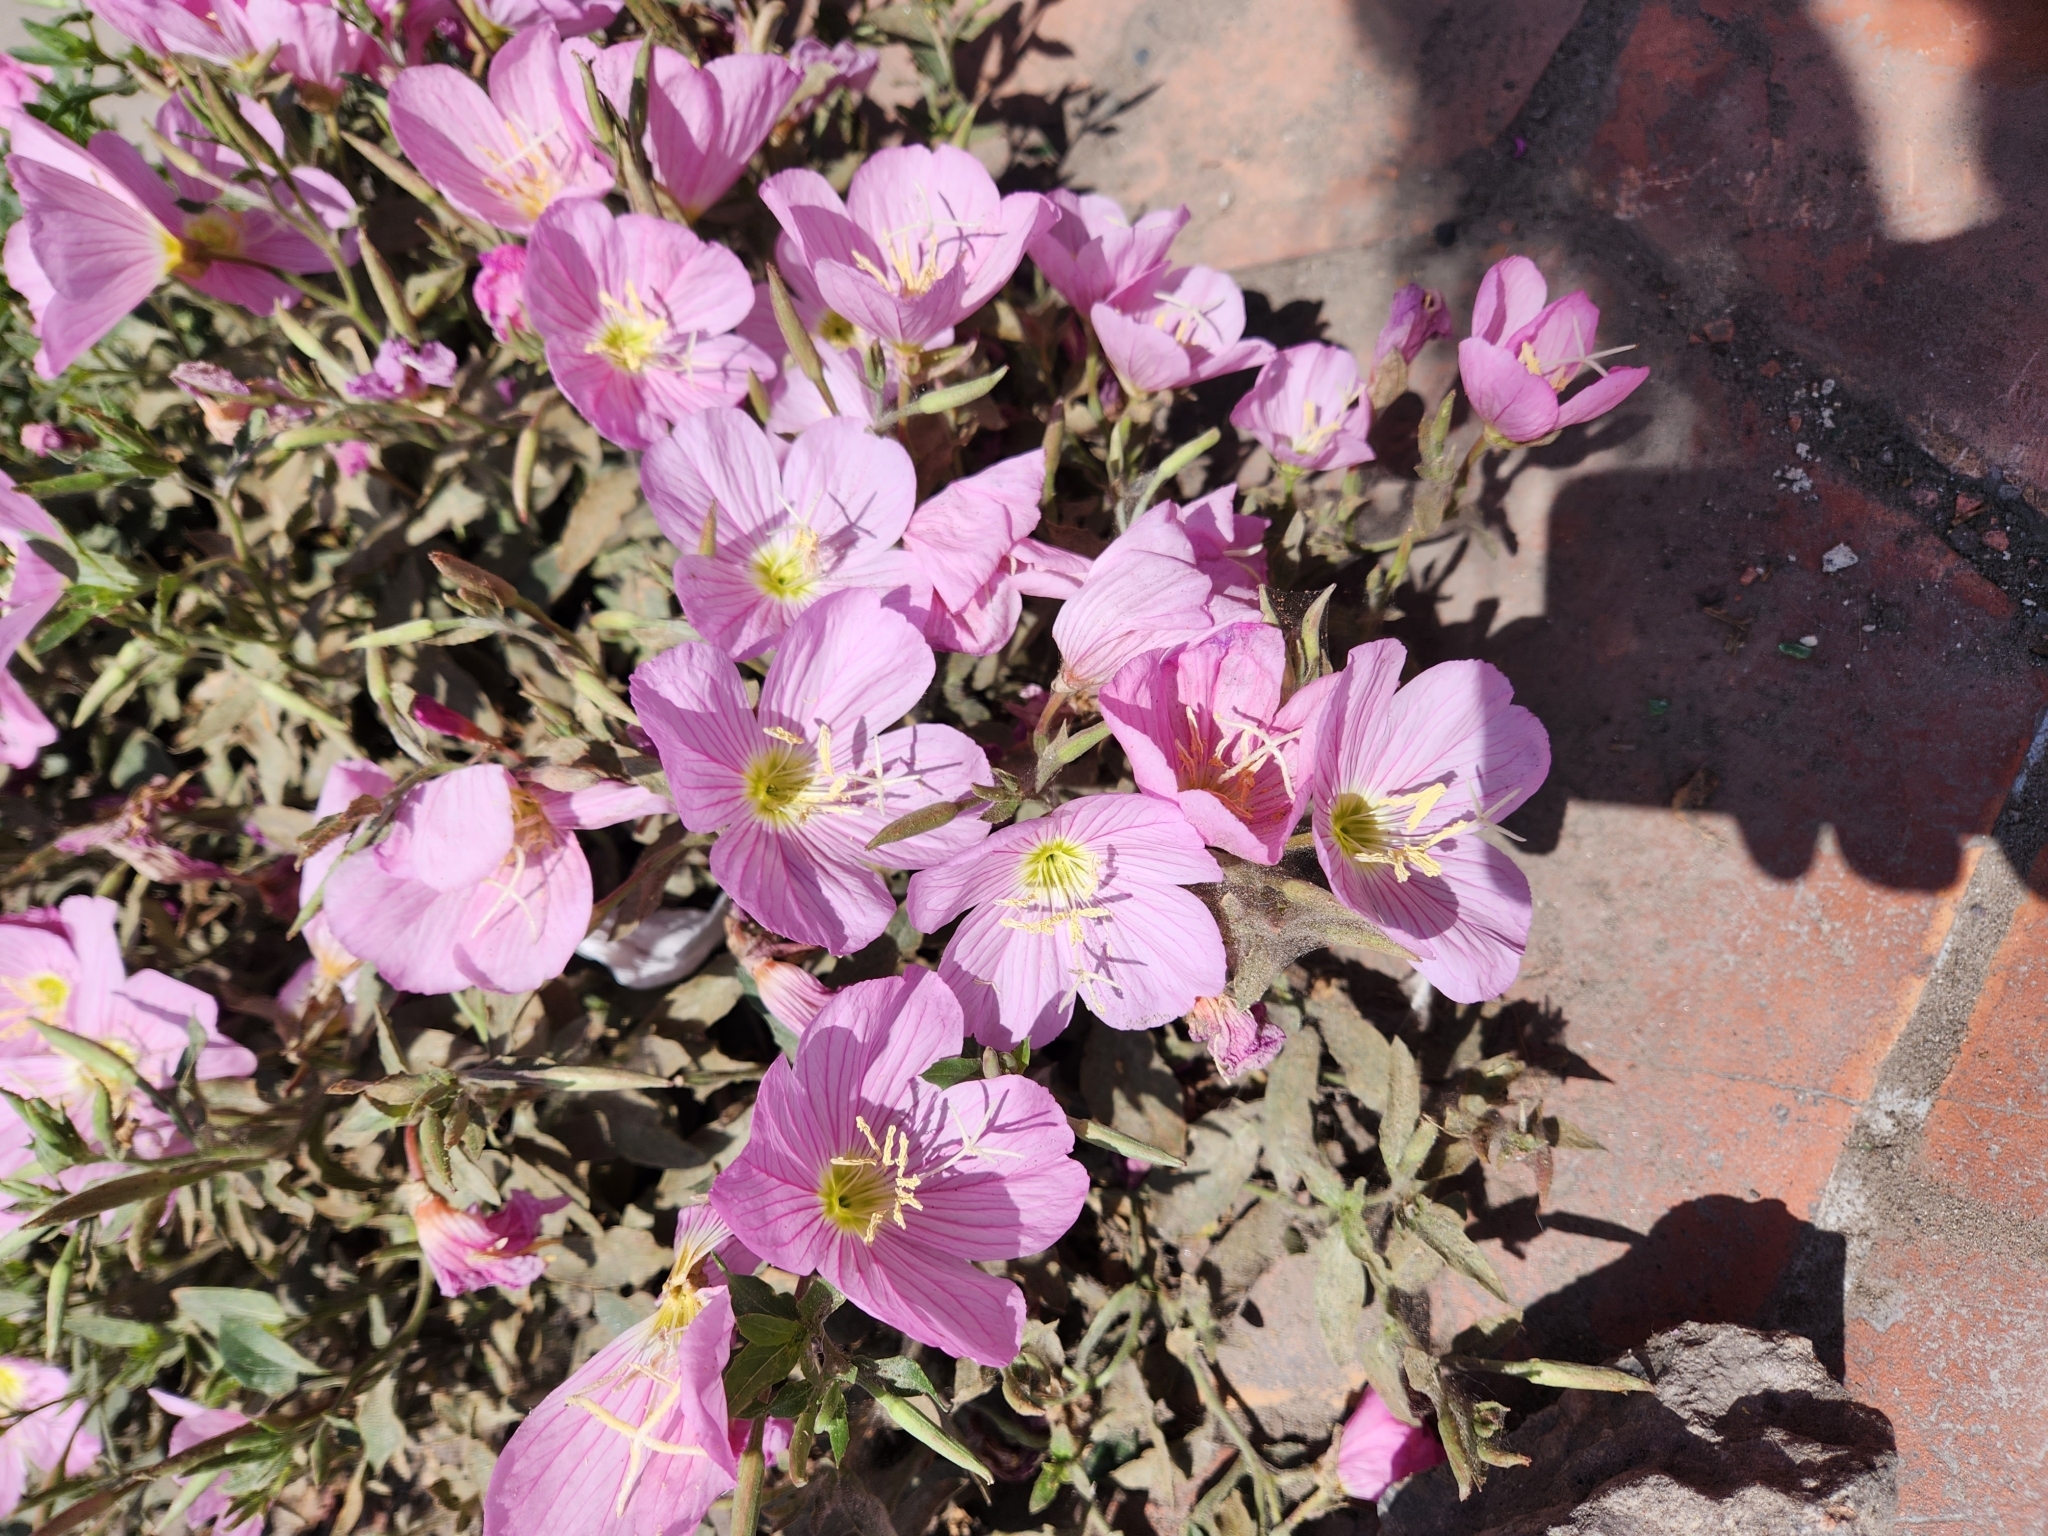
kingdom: Plantae
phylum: Tracheophyta
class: Magnoliopsida
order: Myrtales
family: Onagraceae
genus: Oenothera
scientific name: Oenothera speciosa
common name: White evening-primrose
